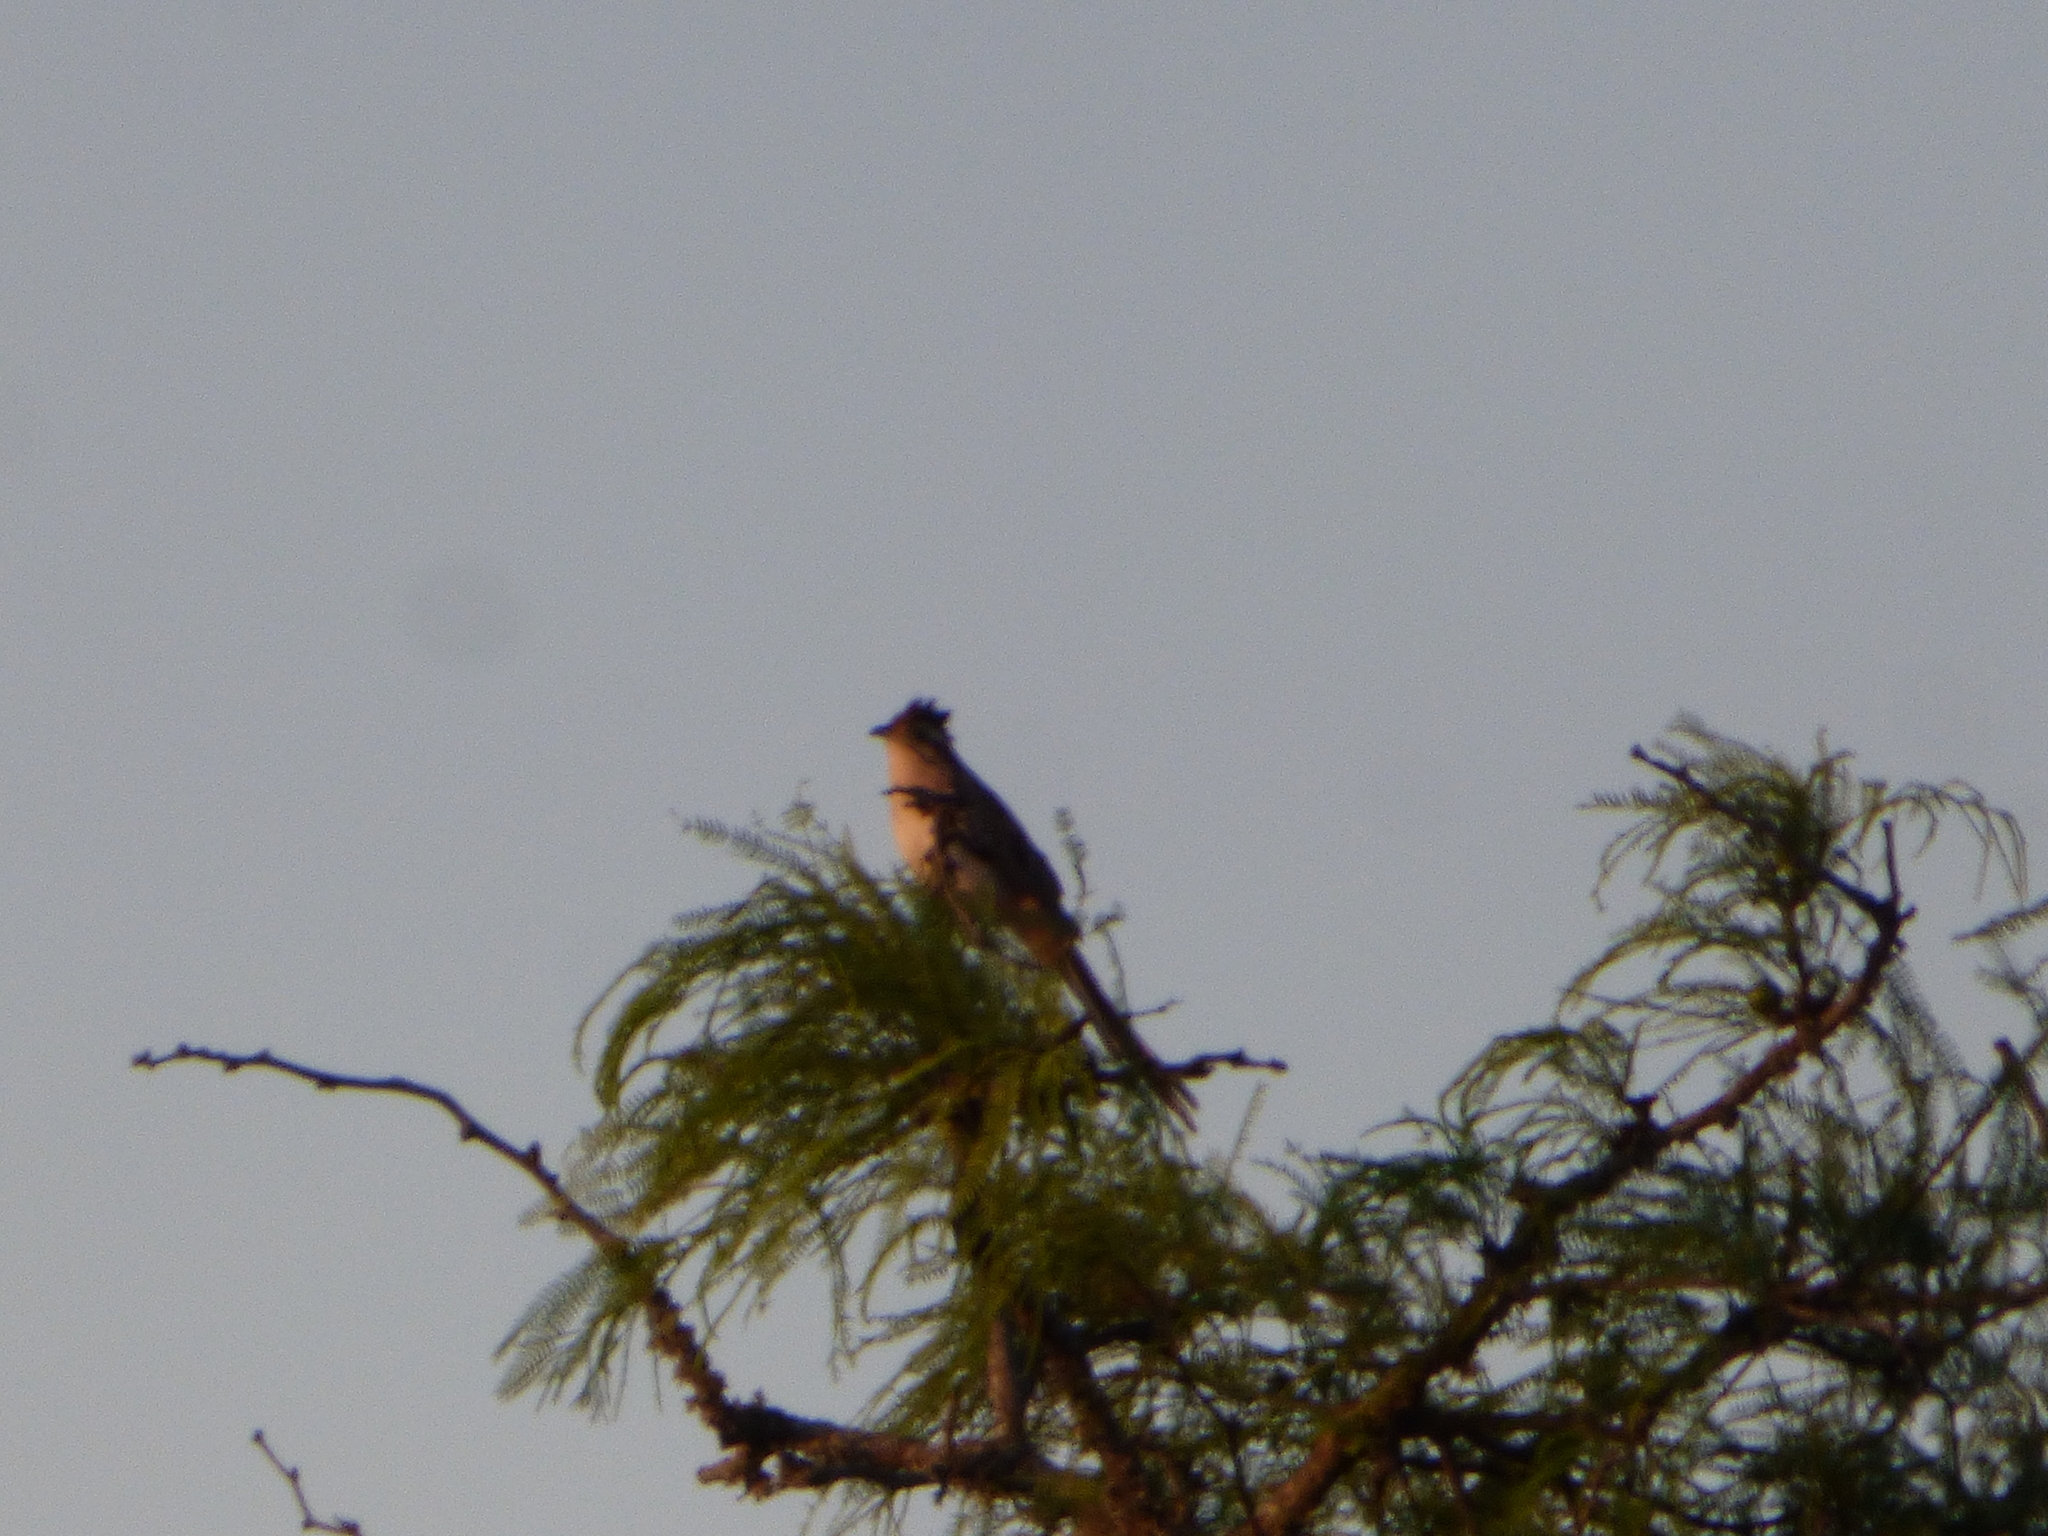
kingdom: Animalia
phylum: Chordata
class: Aves
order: Cuculiformes
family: Cuculidae
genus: Tapera
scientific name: Tapera naevia
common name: Striped cuckoo
